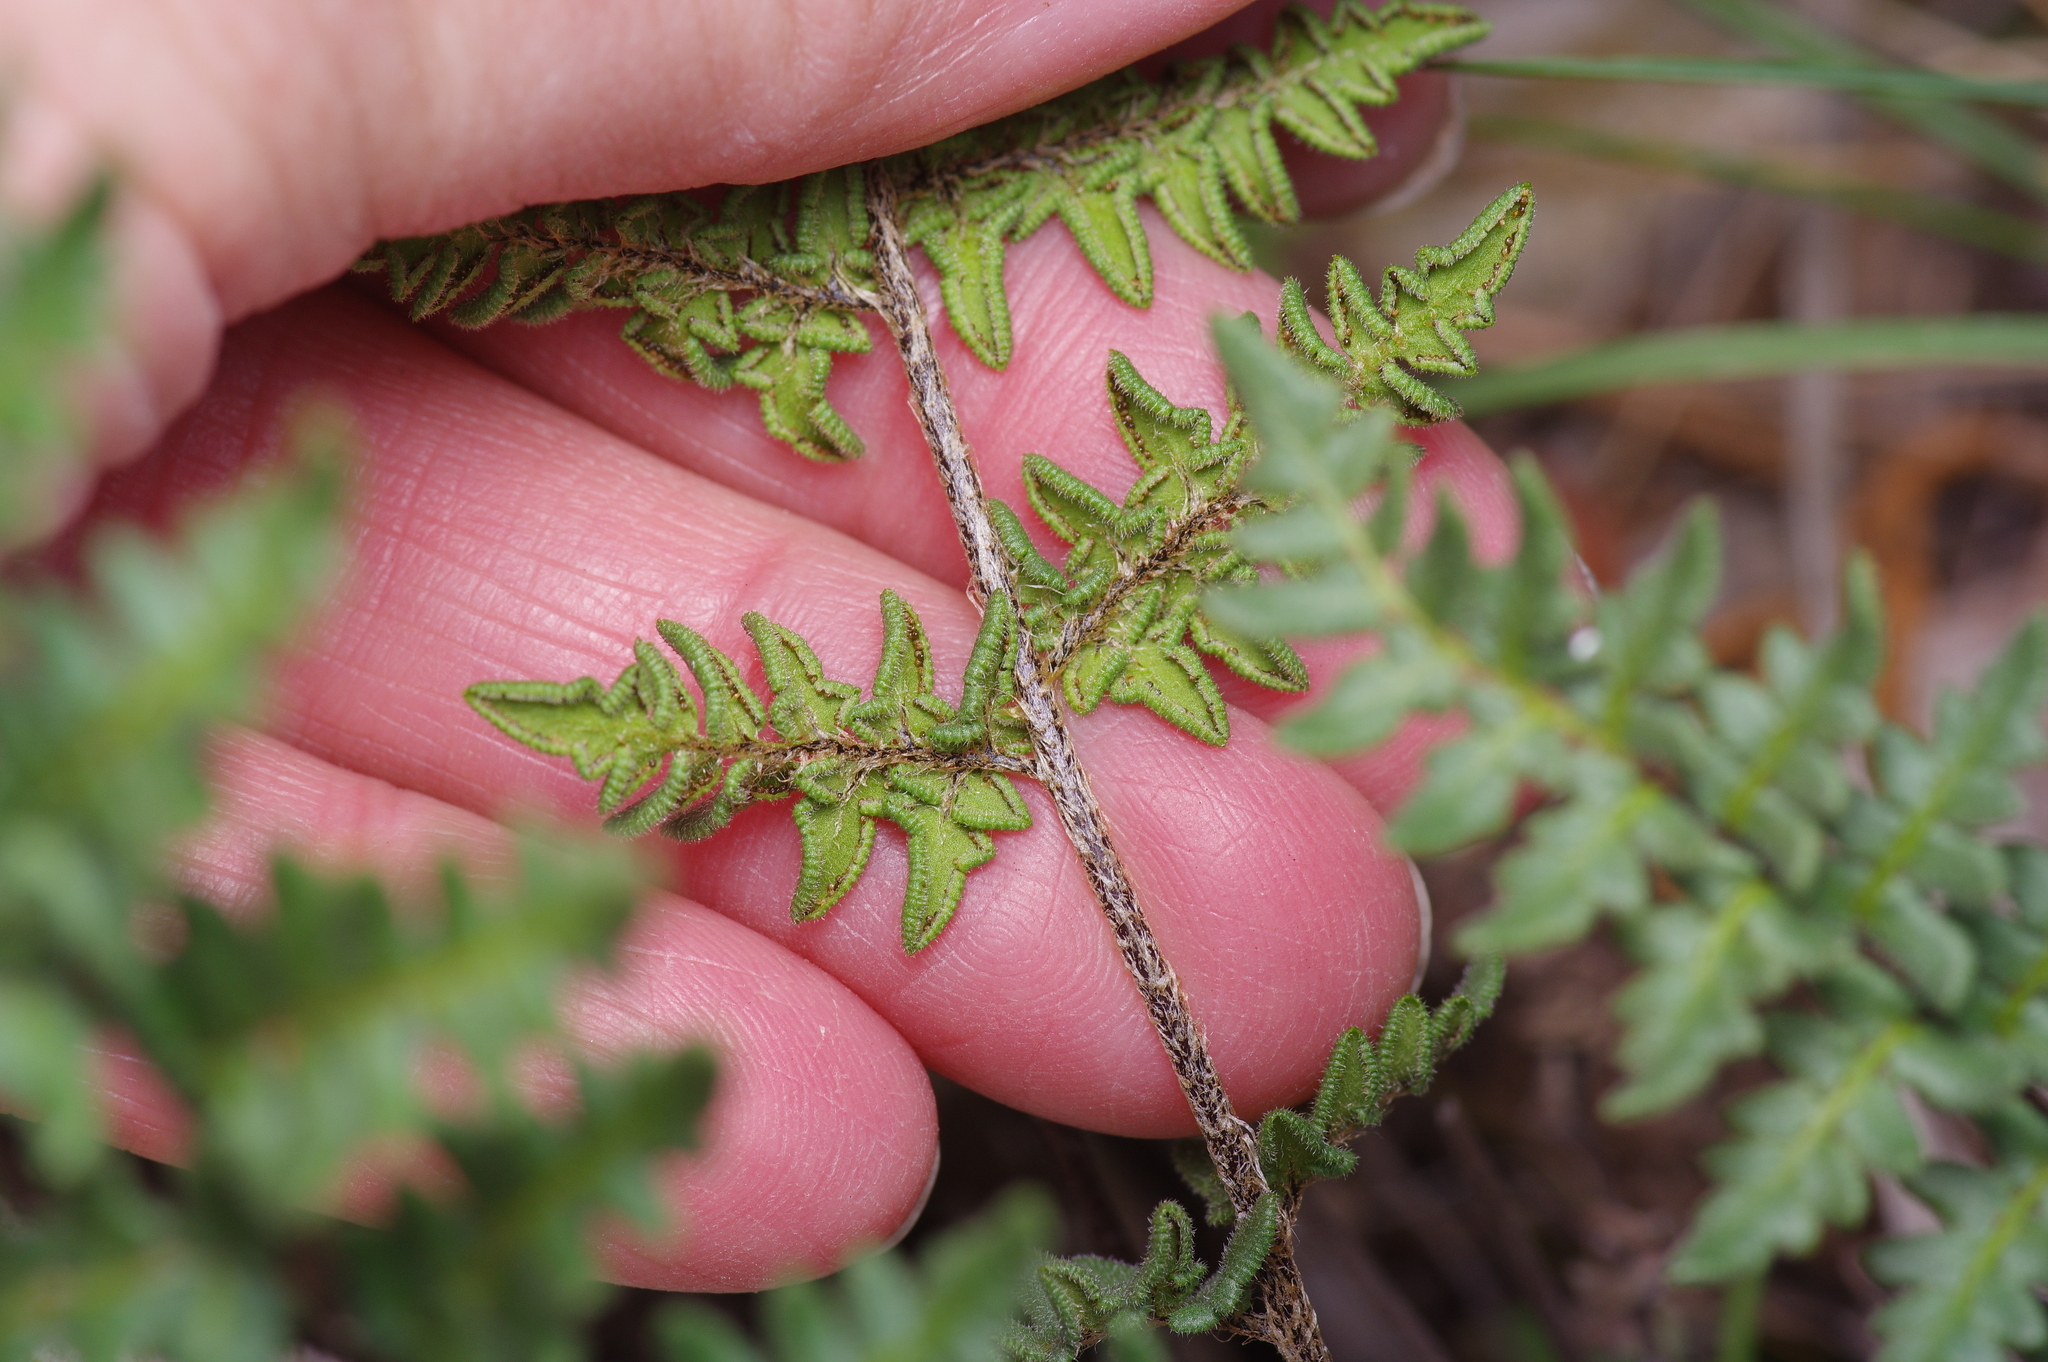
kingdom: Plantae
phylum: Tracheophyta
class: Polypodiopsida
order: Polypodiales
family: Pteridaceae
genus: Myriopteris
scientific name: Myriopteris scabra
